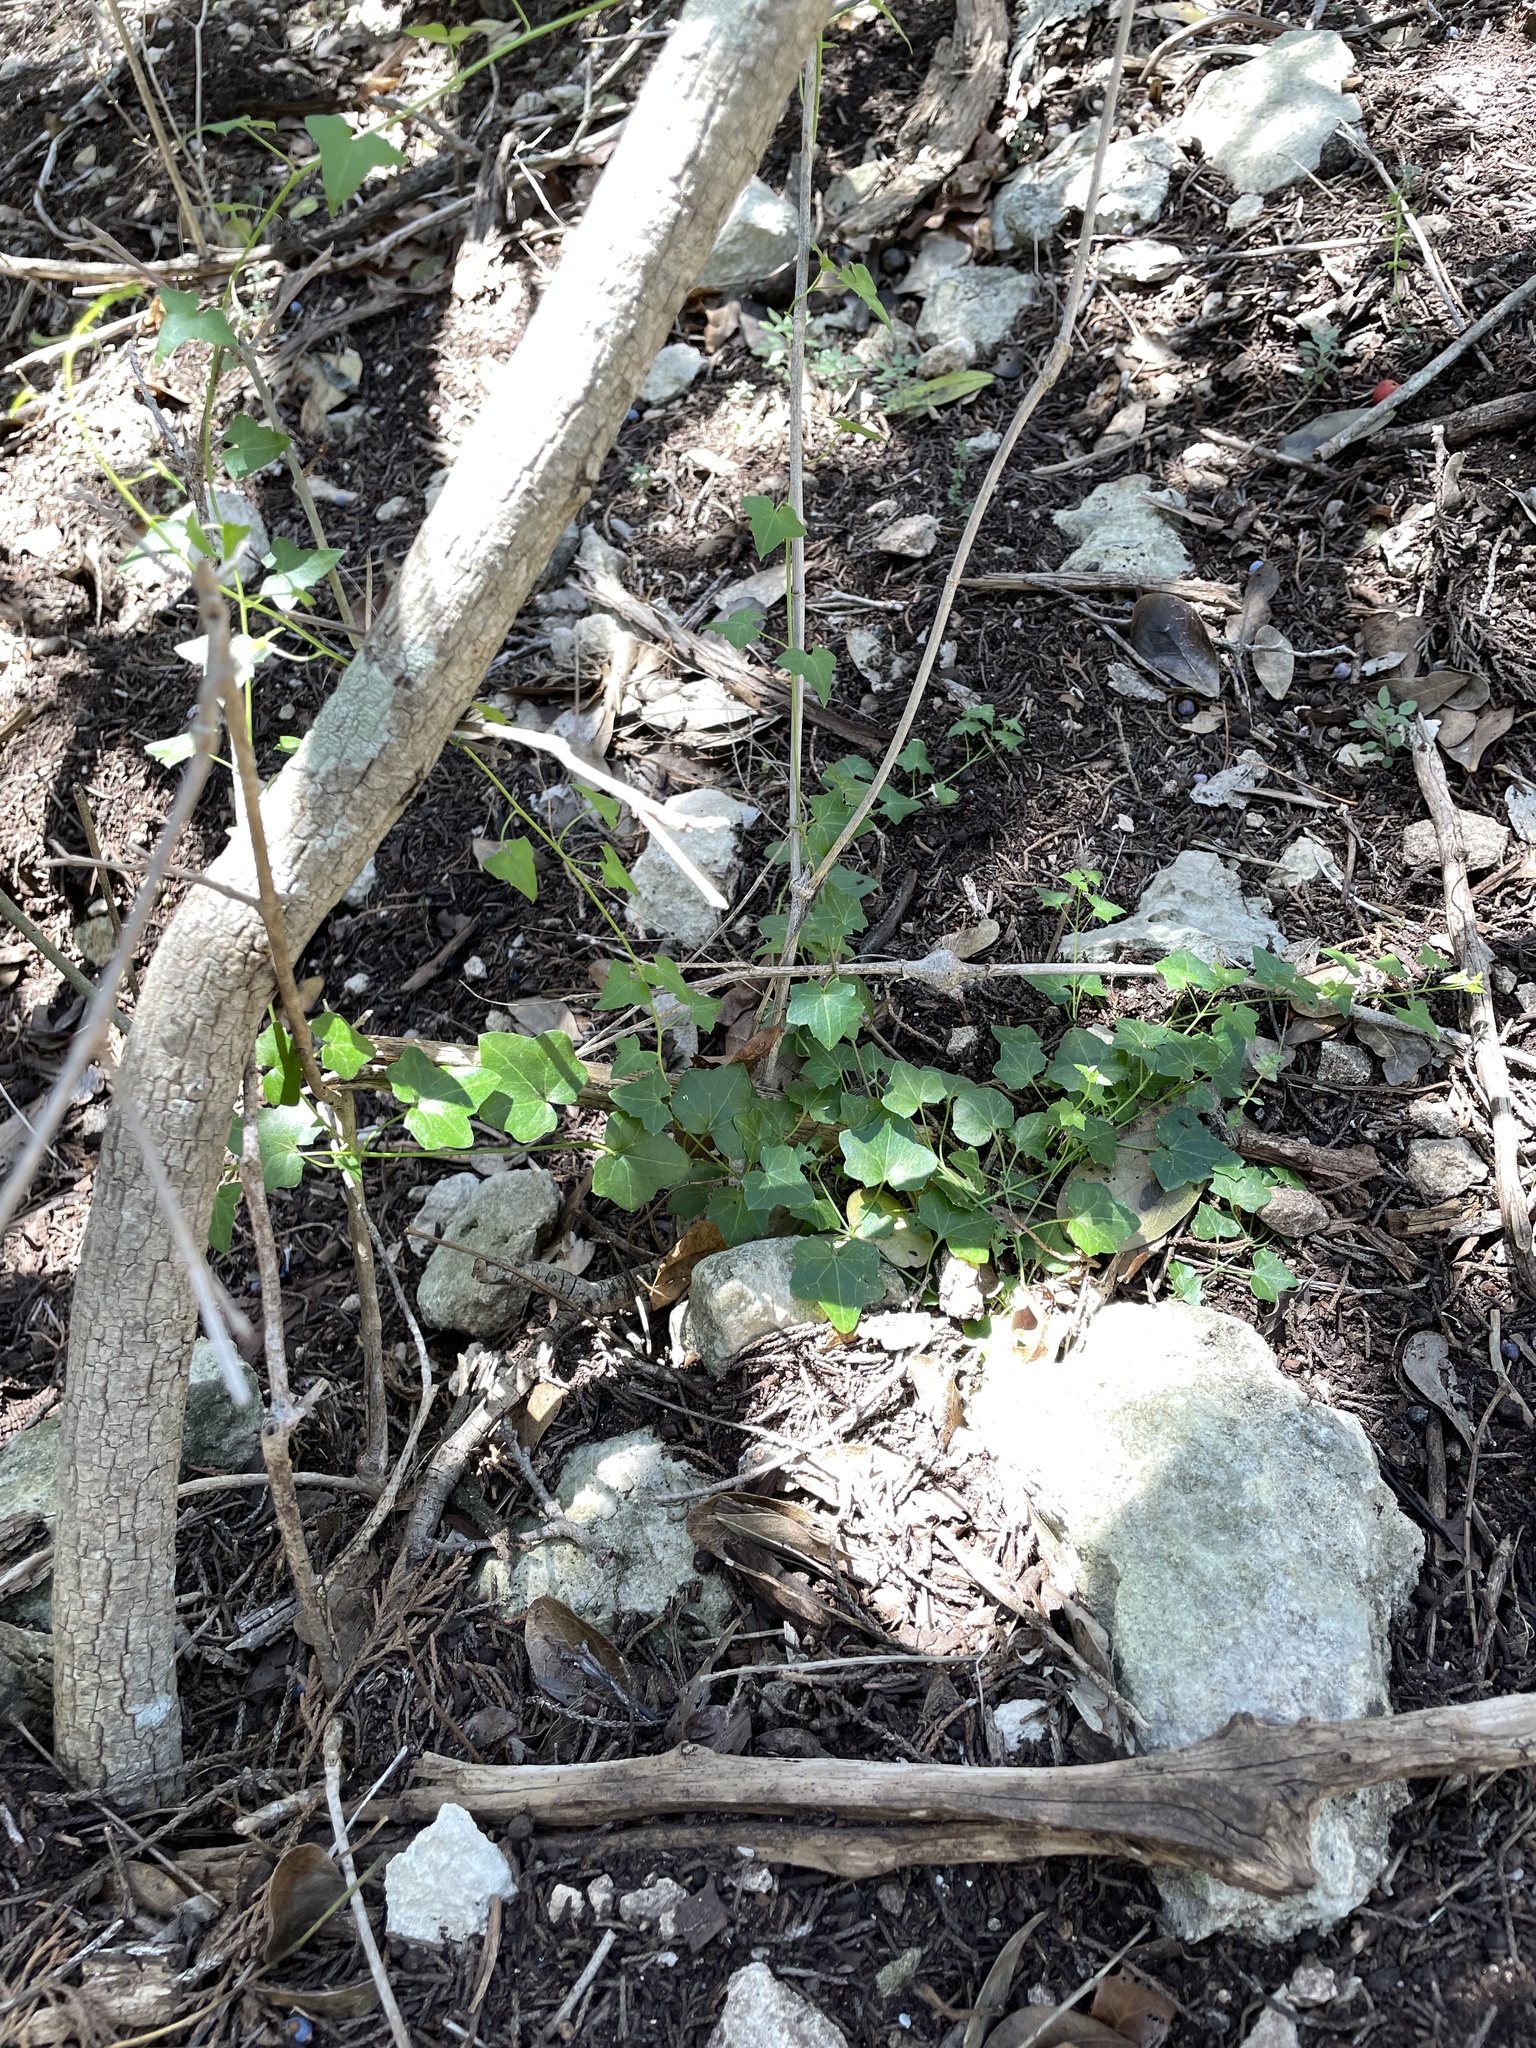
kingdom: Plantae
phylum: Tracheophyta
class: Magnoliopsida
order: Lamiales
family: Plantaginaceae
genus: Maurandella
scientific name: Maurandella antirrhiniflora
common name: Violet twining-snapdragon
